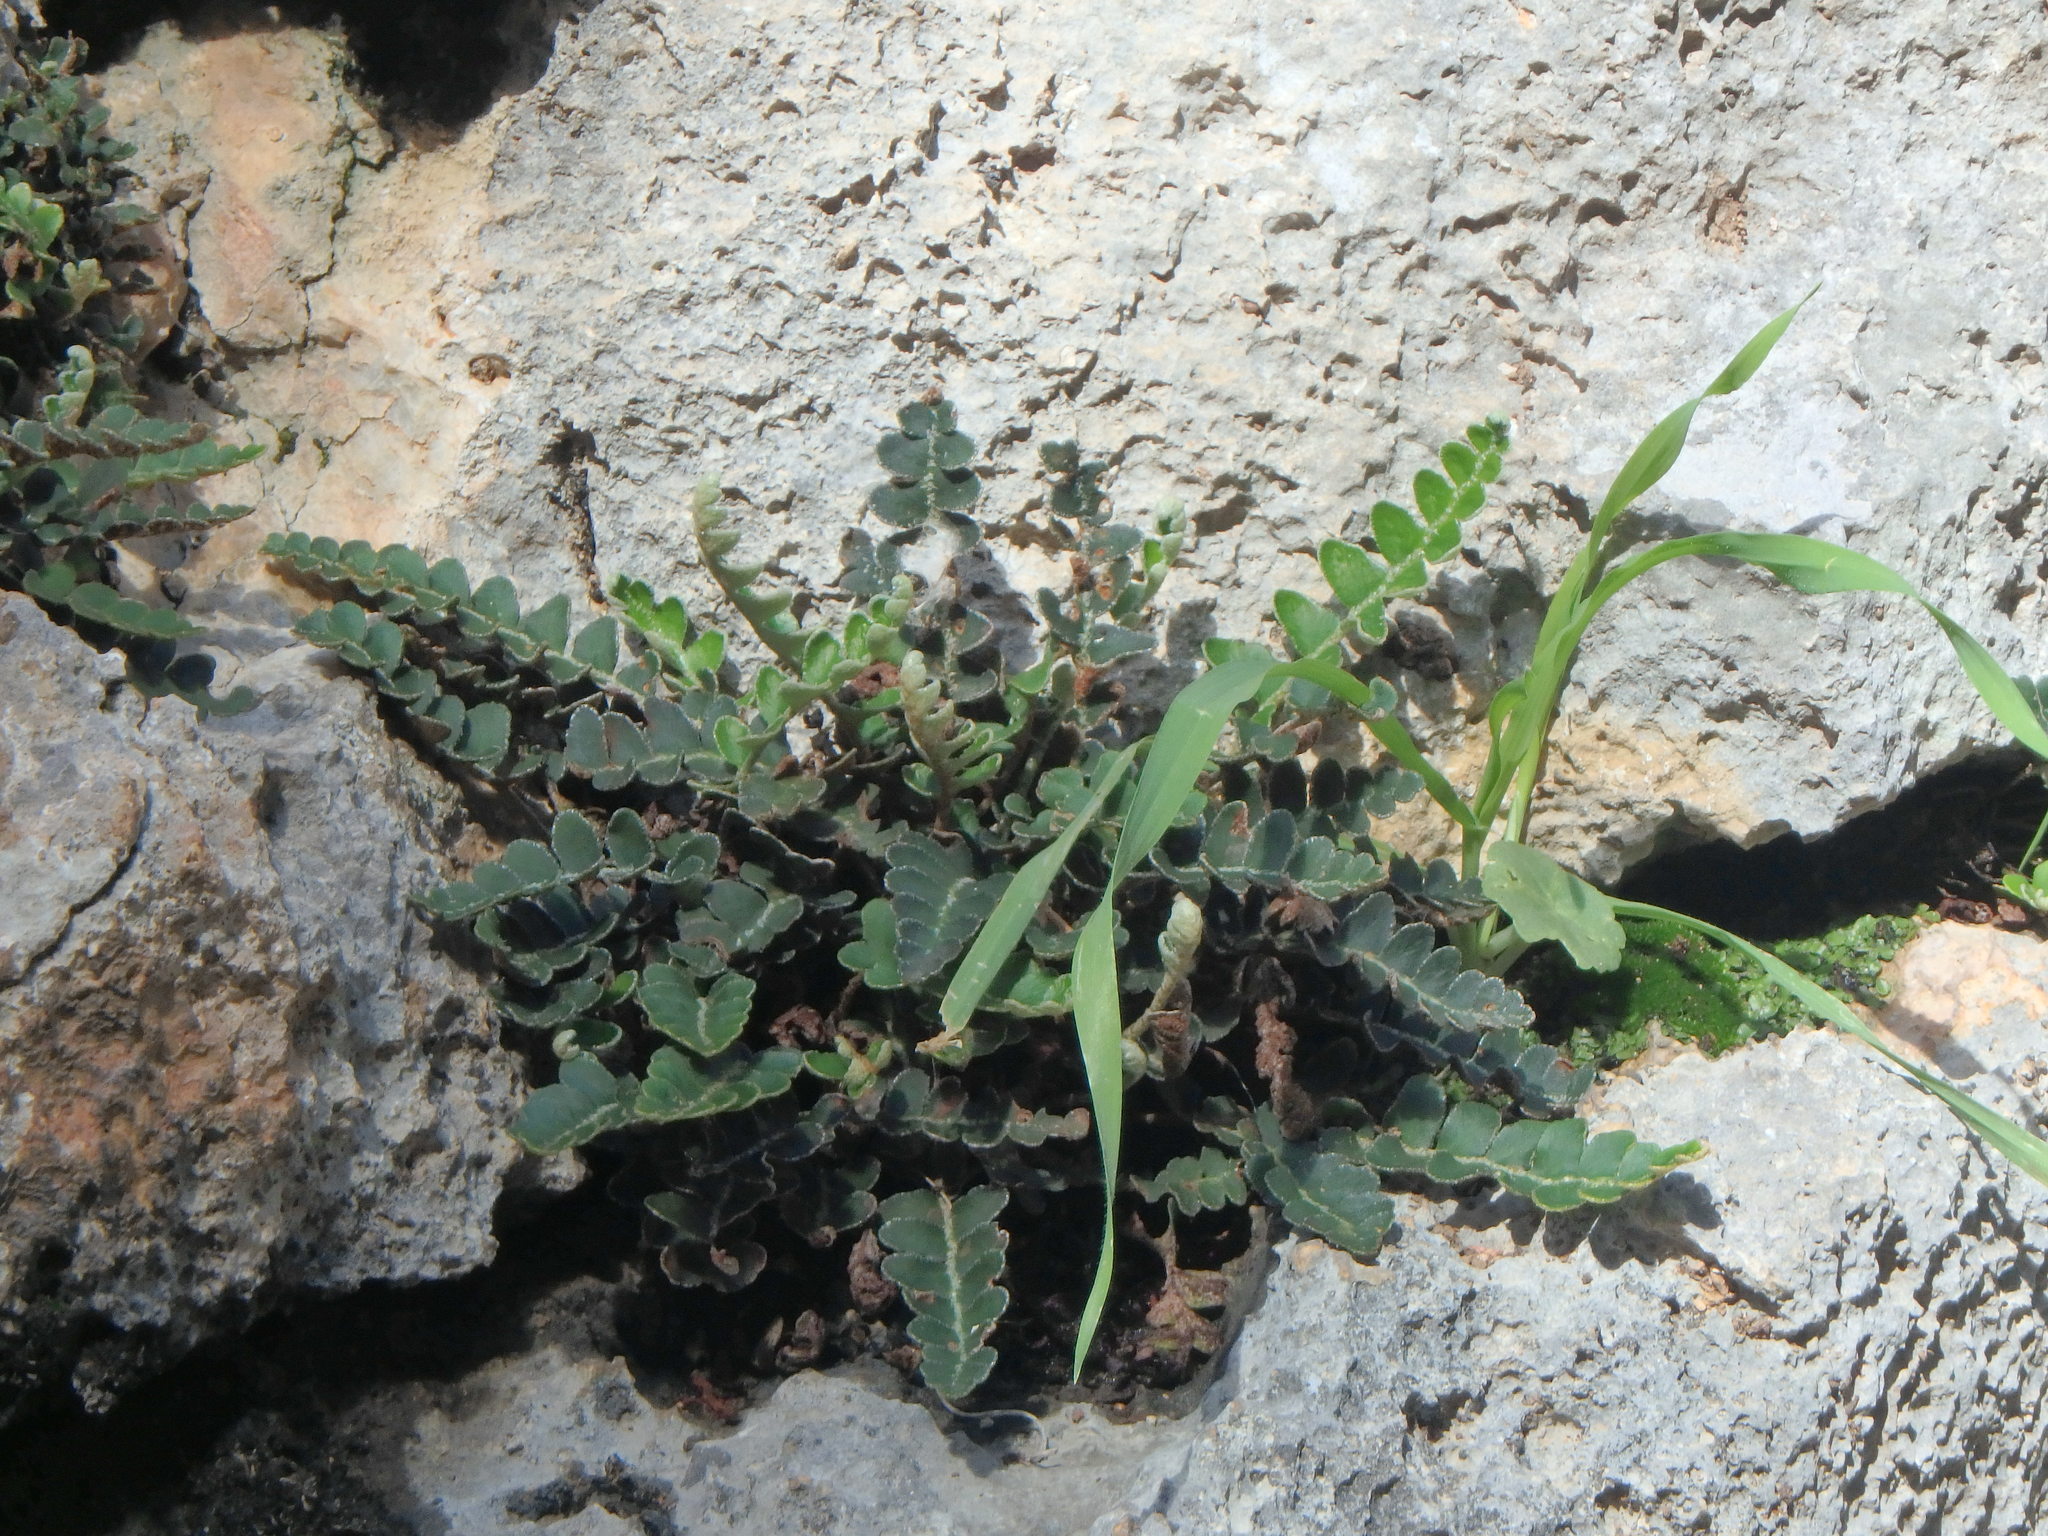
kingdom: Plantae
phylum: Tracheophyta
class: Polypodiopsida
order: Polypodiales
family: Aspleniaceae
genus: Asplenium
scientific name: Asplenium ceterach
